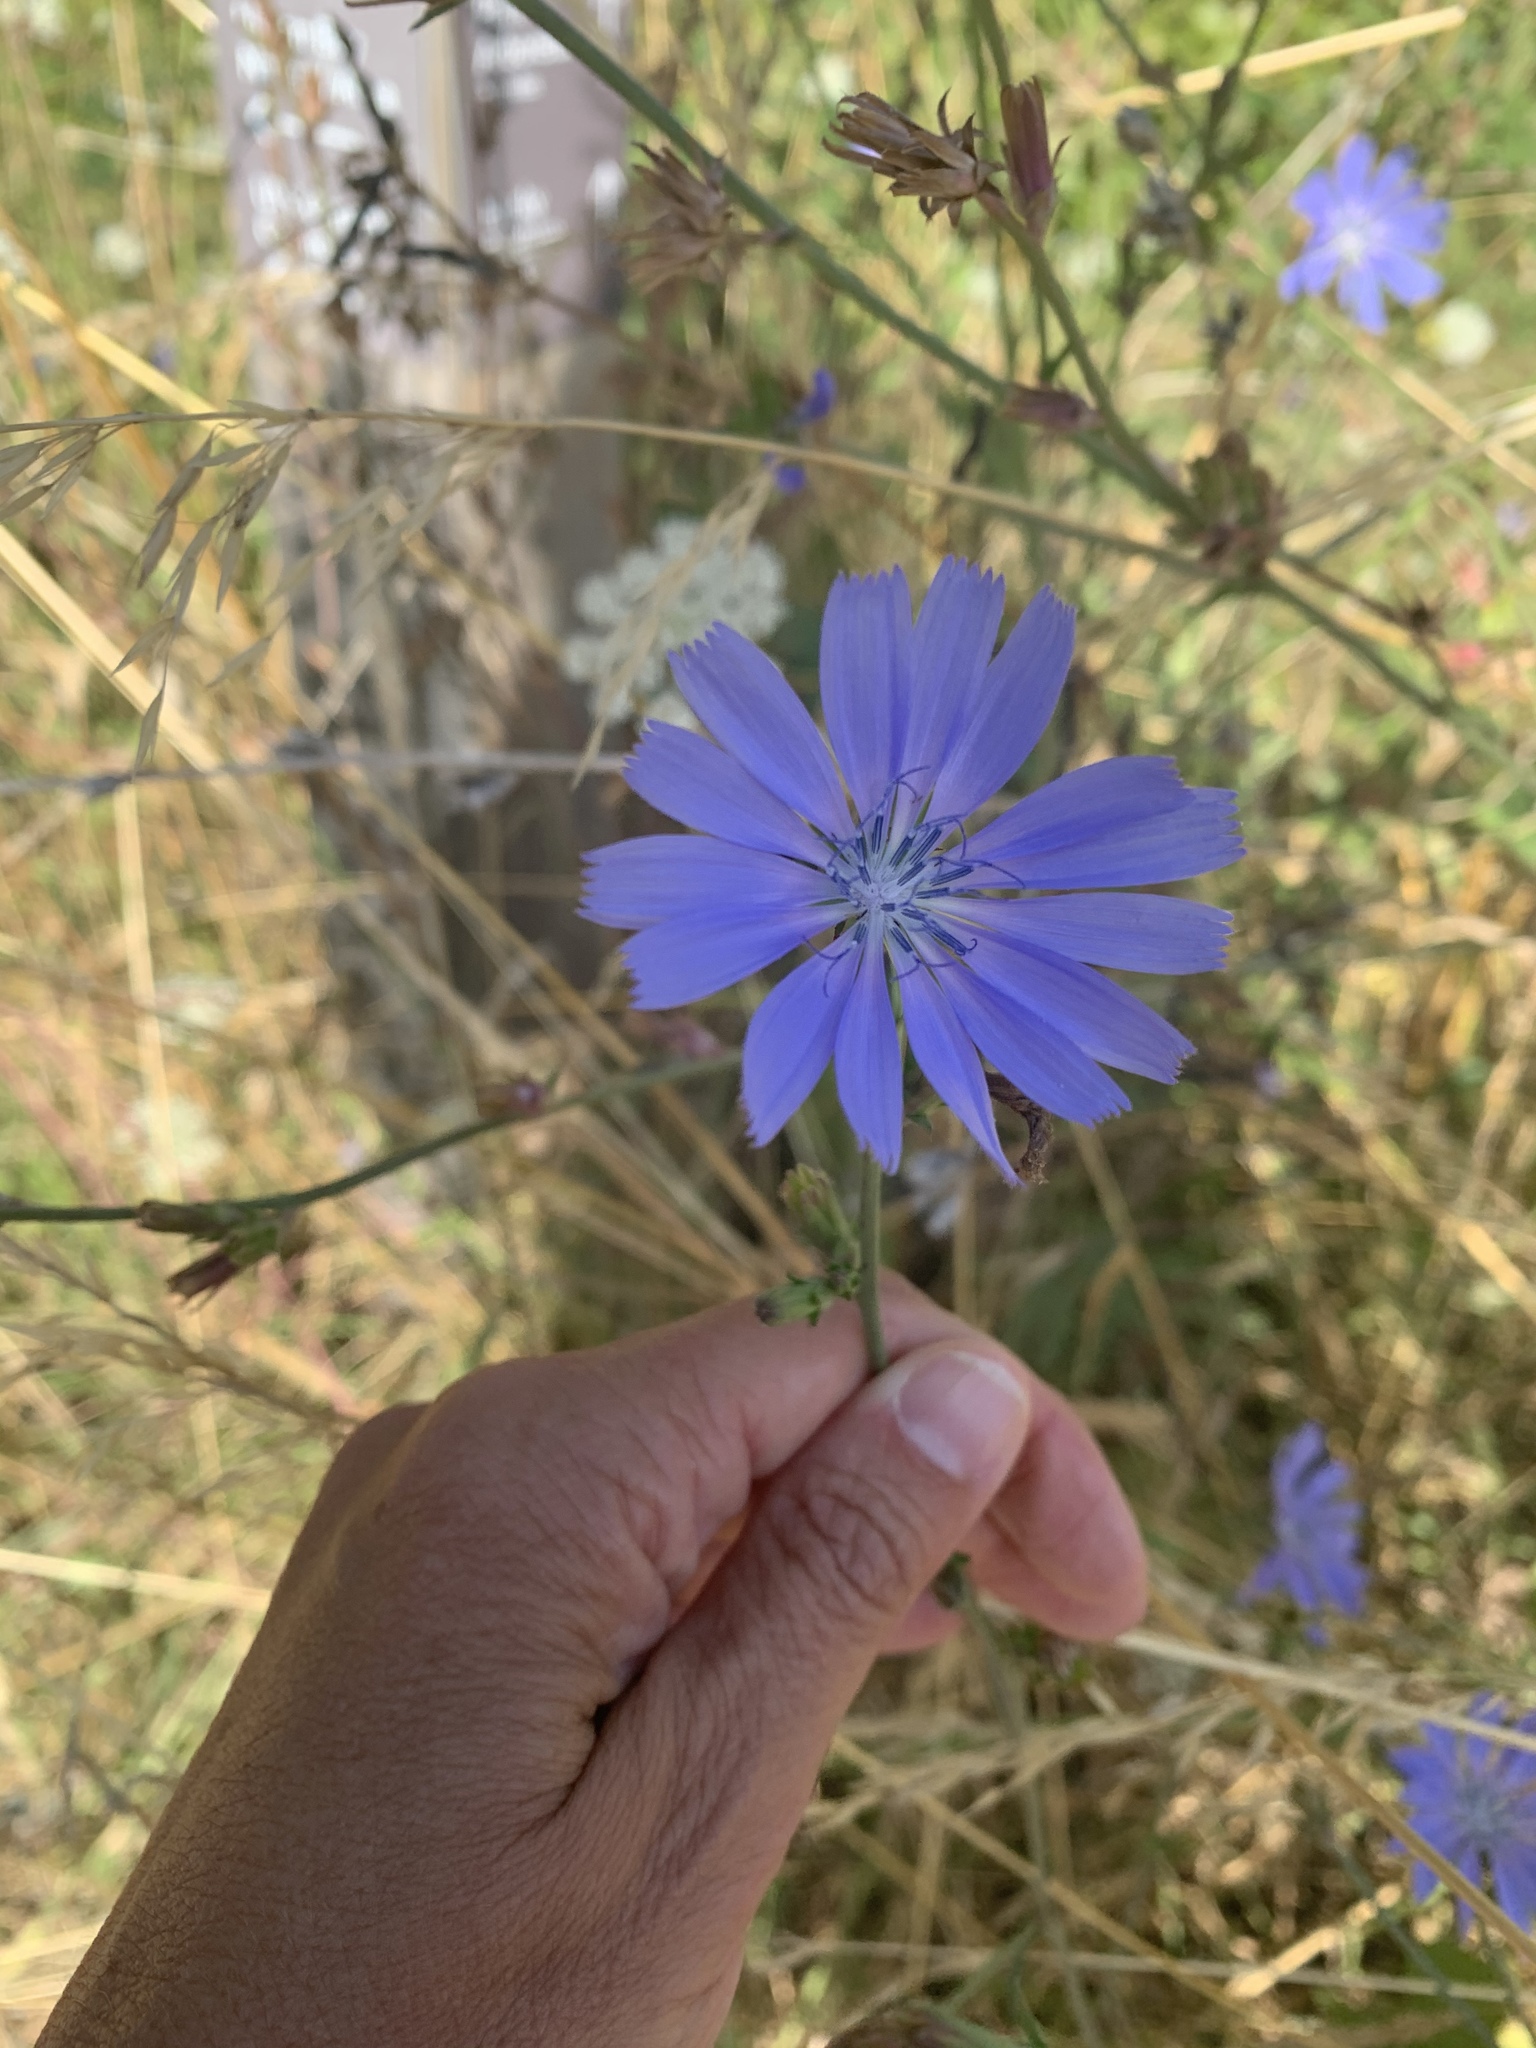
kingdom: Plantae
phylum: Tracheophyta
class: Magnoliopsida
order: Asterales
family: Asteraceae
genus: Cichorium
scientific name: Cichorium intybus
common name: Chicory
